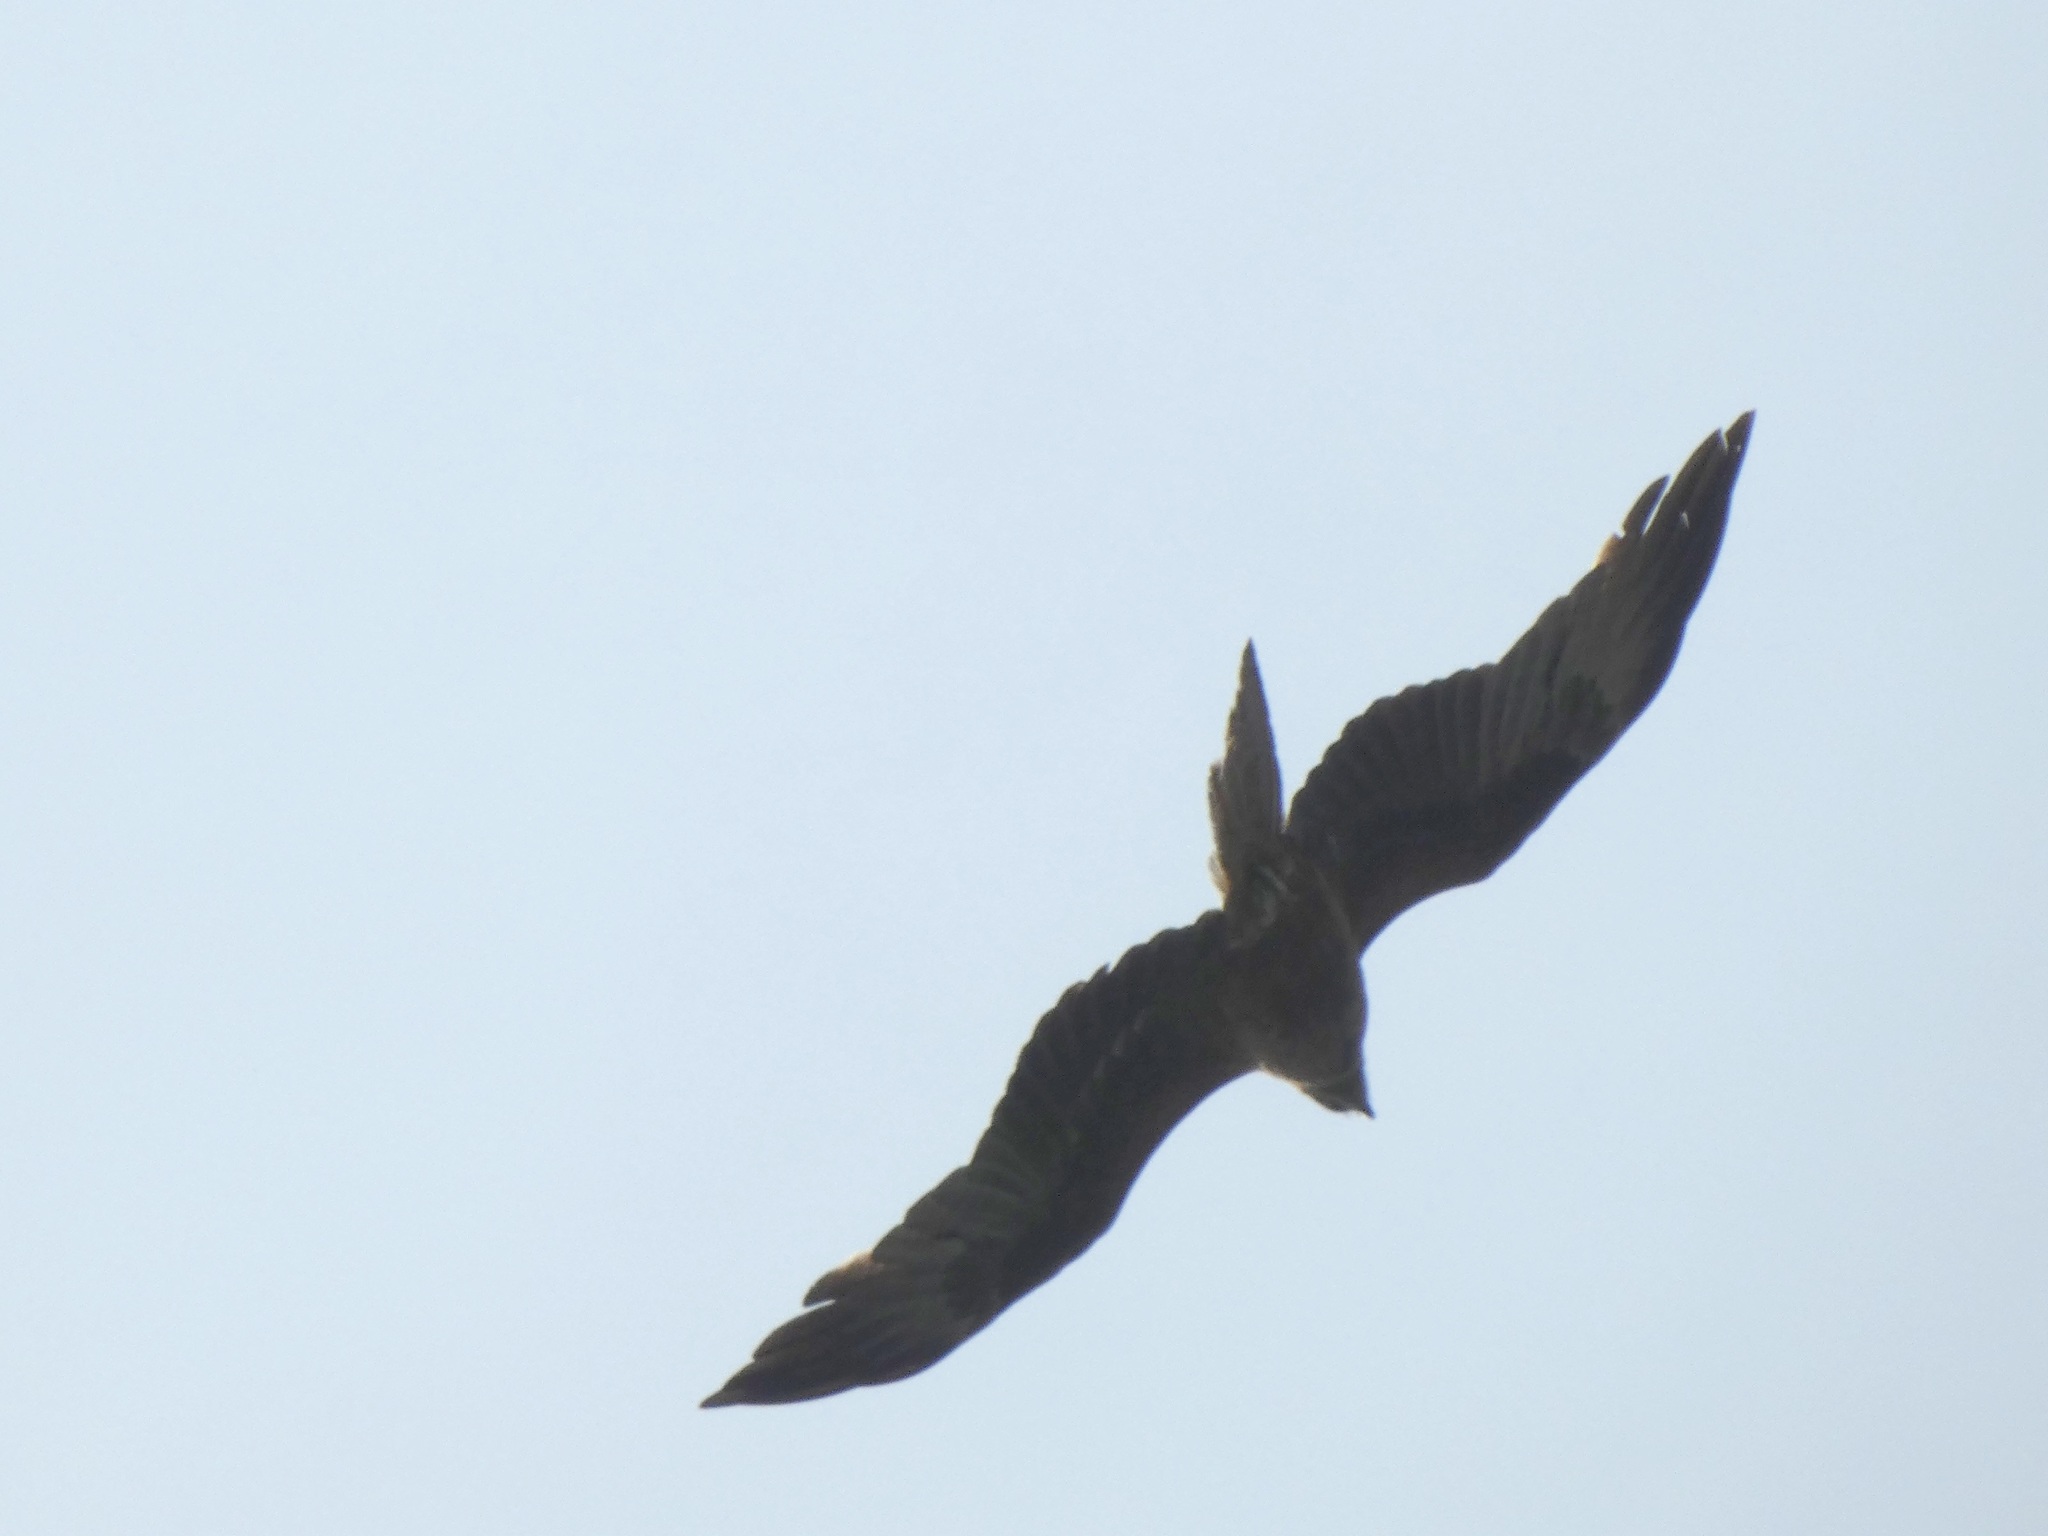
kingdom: Animalia
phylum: Chordata
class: Aves
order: Accipitriformes
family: Accipitridae
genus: Milvus
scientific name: Milvus migrans
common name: Black kite
